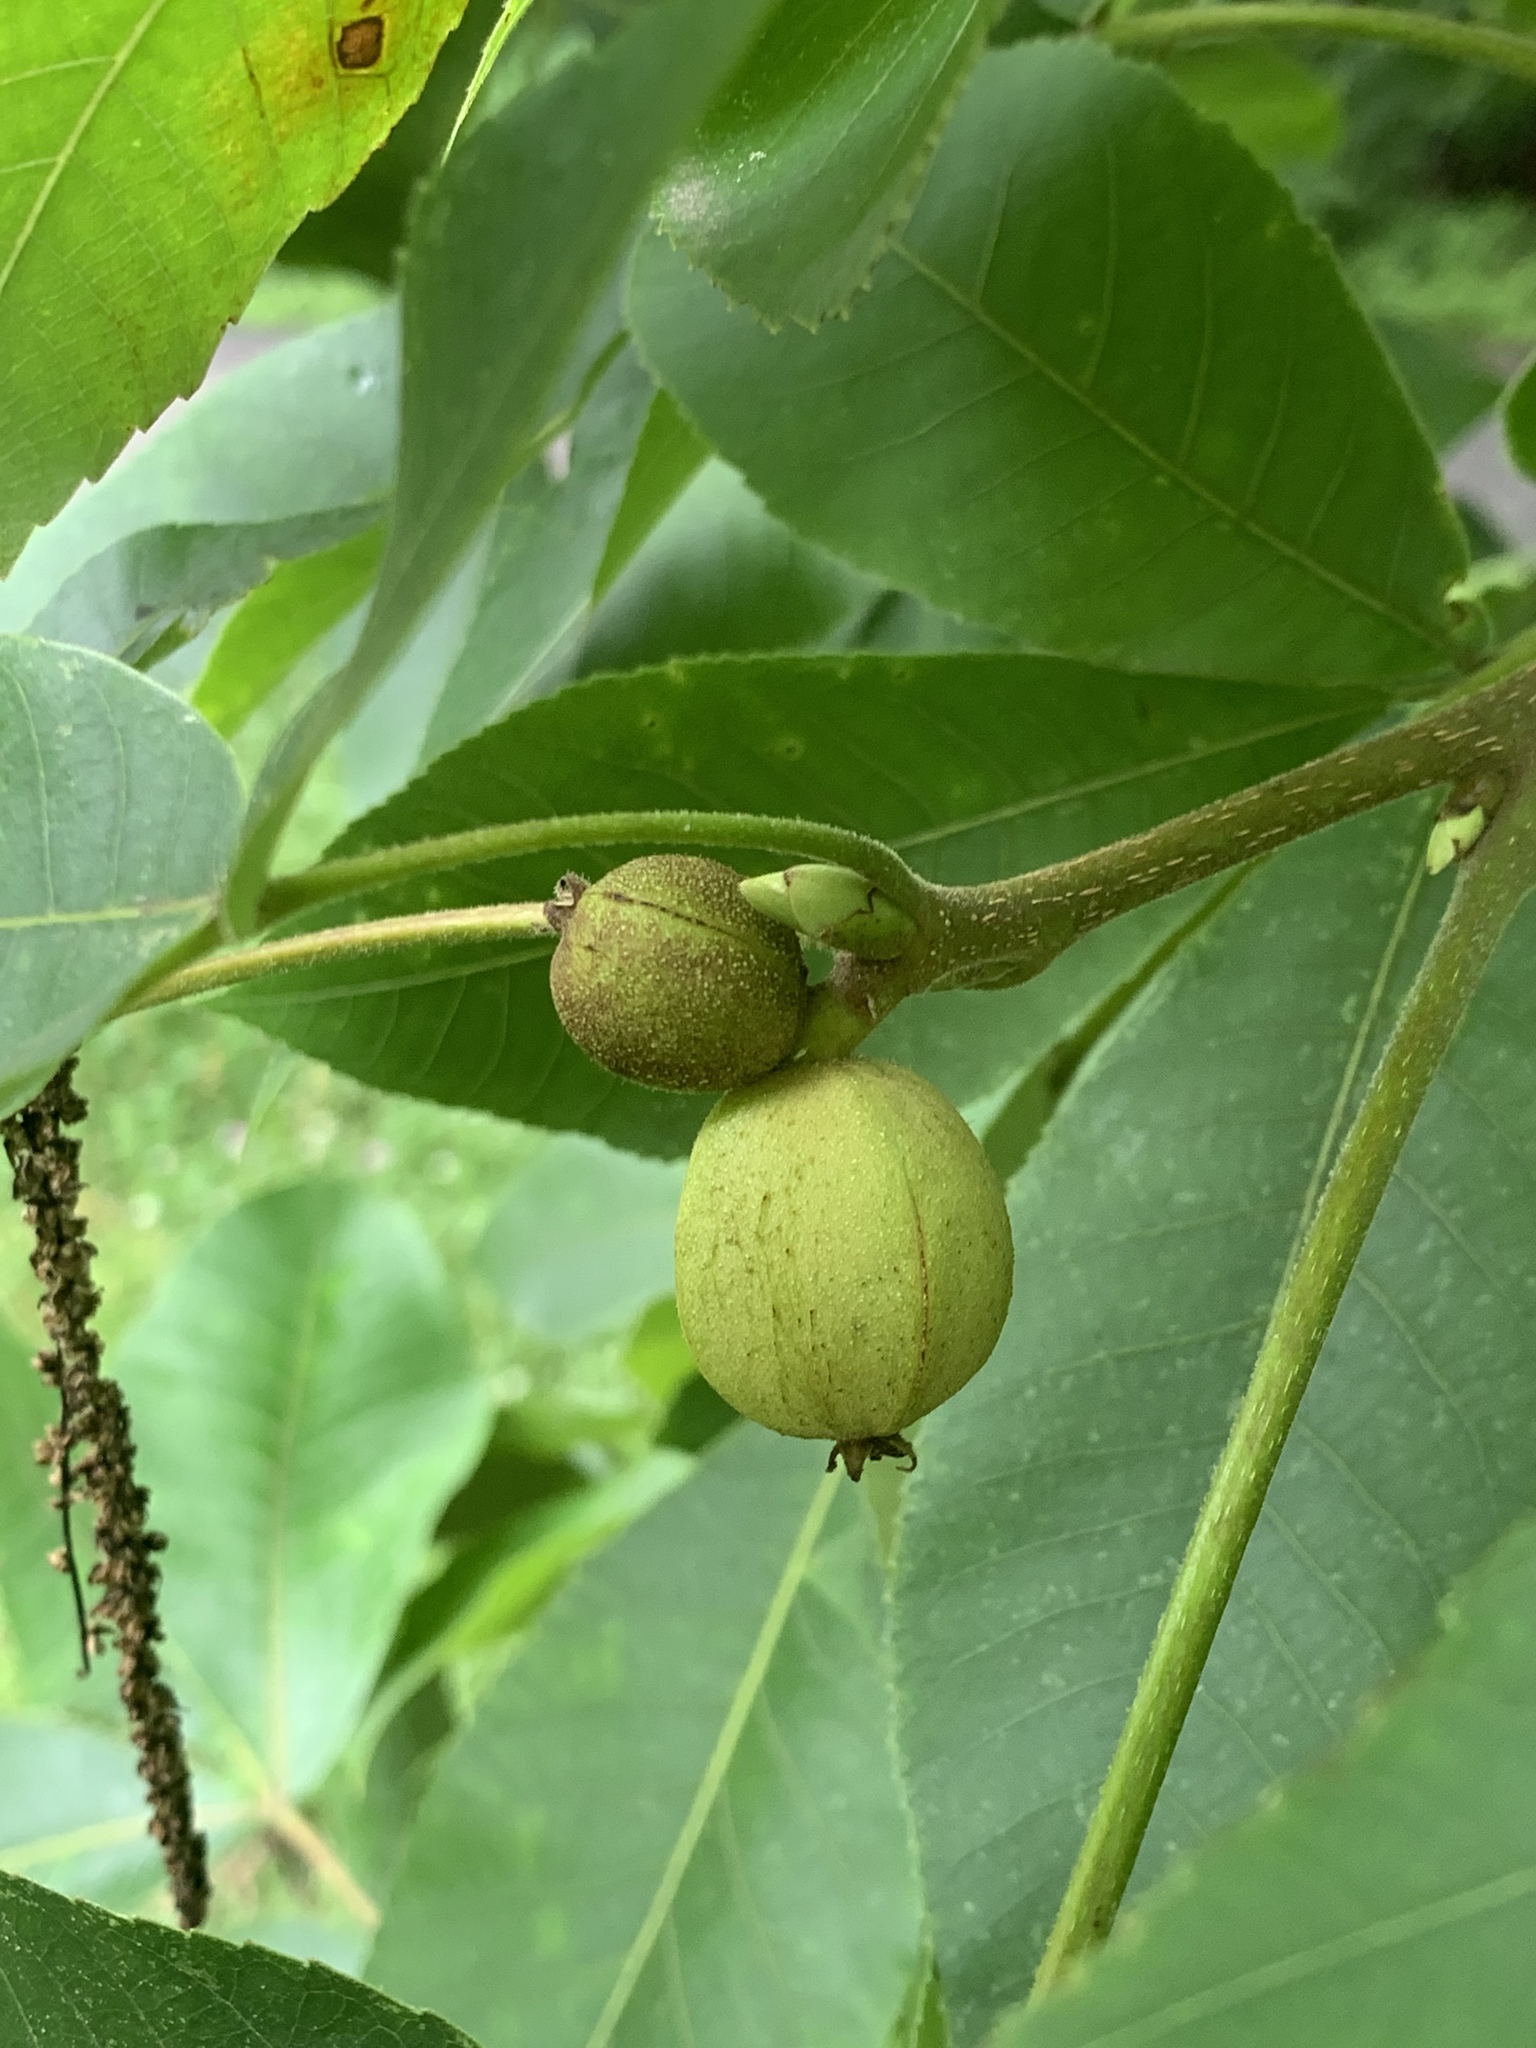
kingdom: Plantae
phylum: Tracheophyta
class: Magnoliopsida
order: Fagales
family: Juglandaceae
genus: Carya
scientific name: Carya ovata
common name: Shagbark hickory
